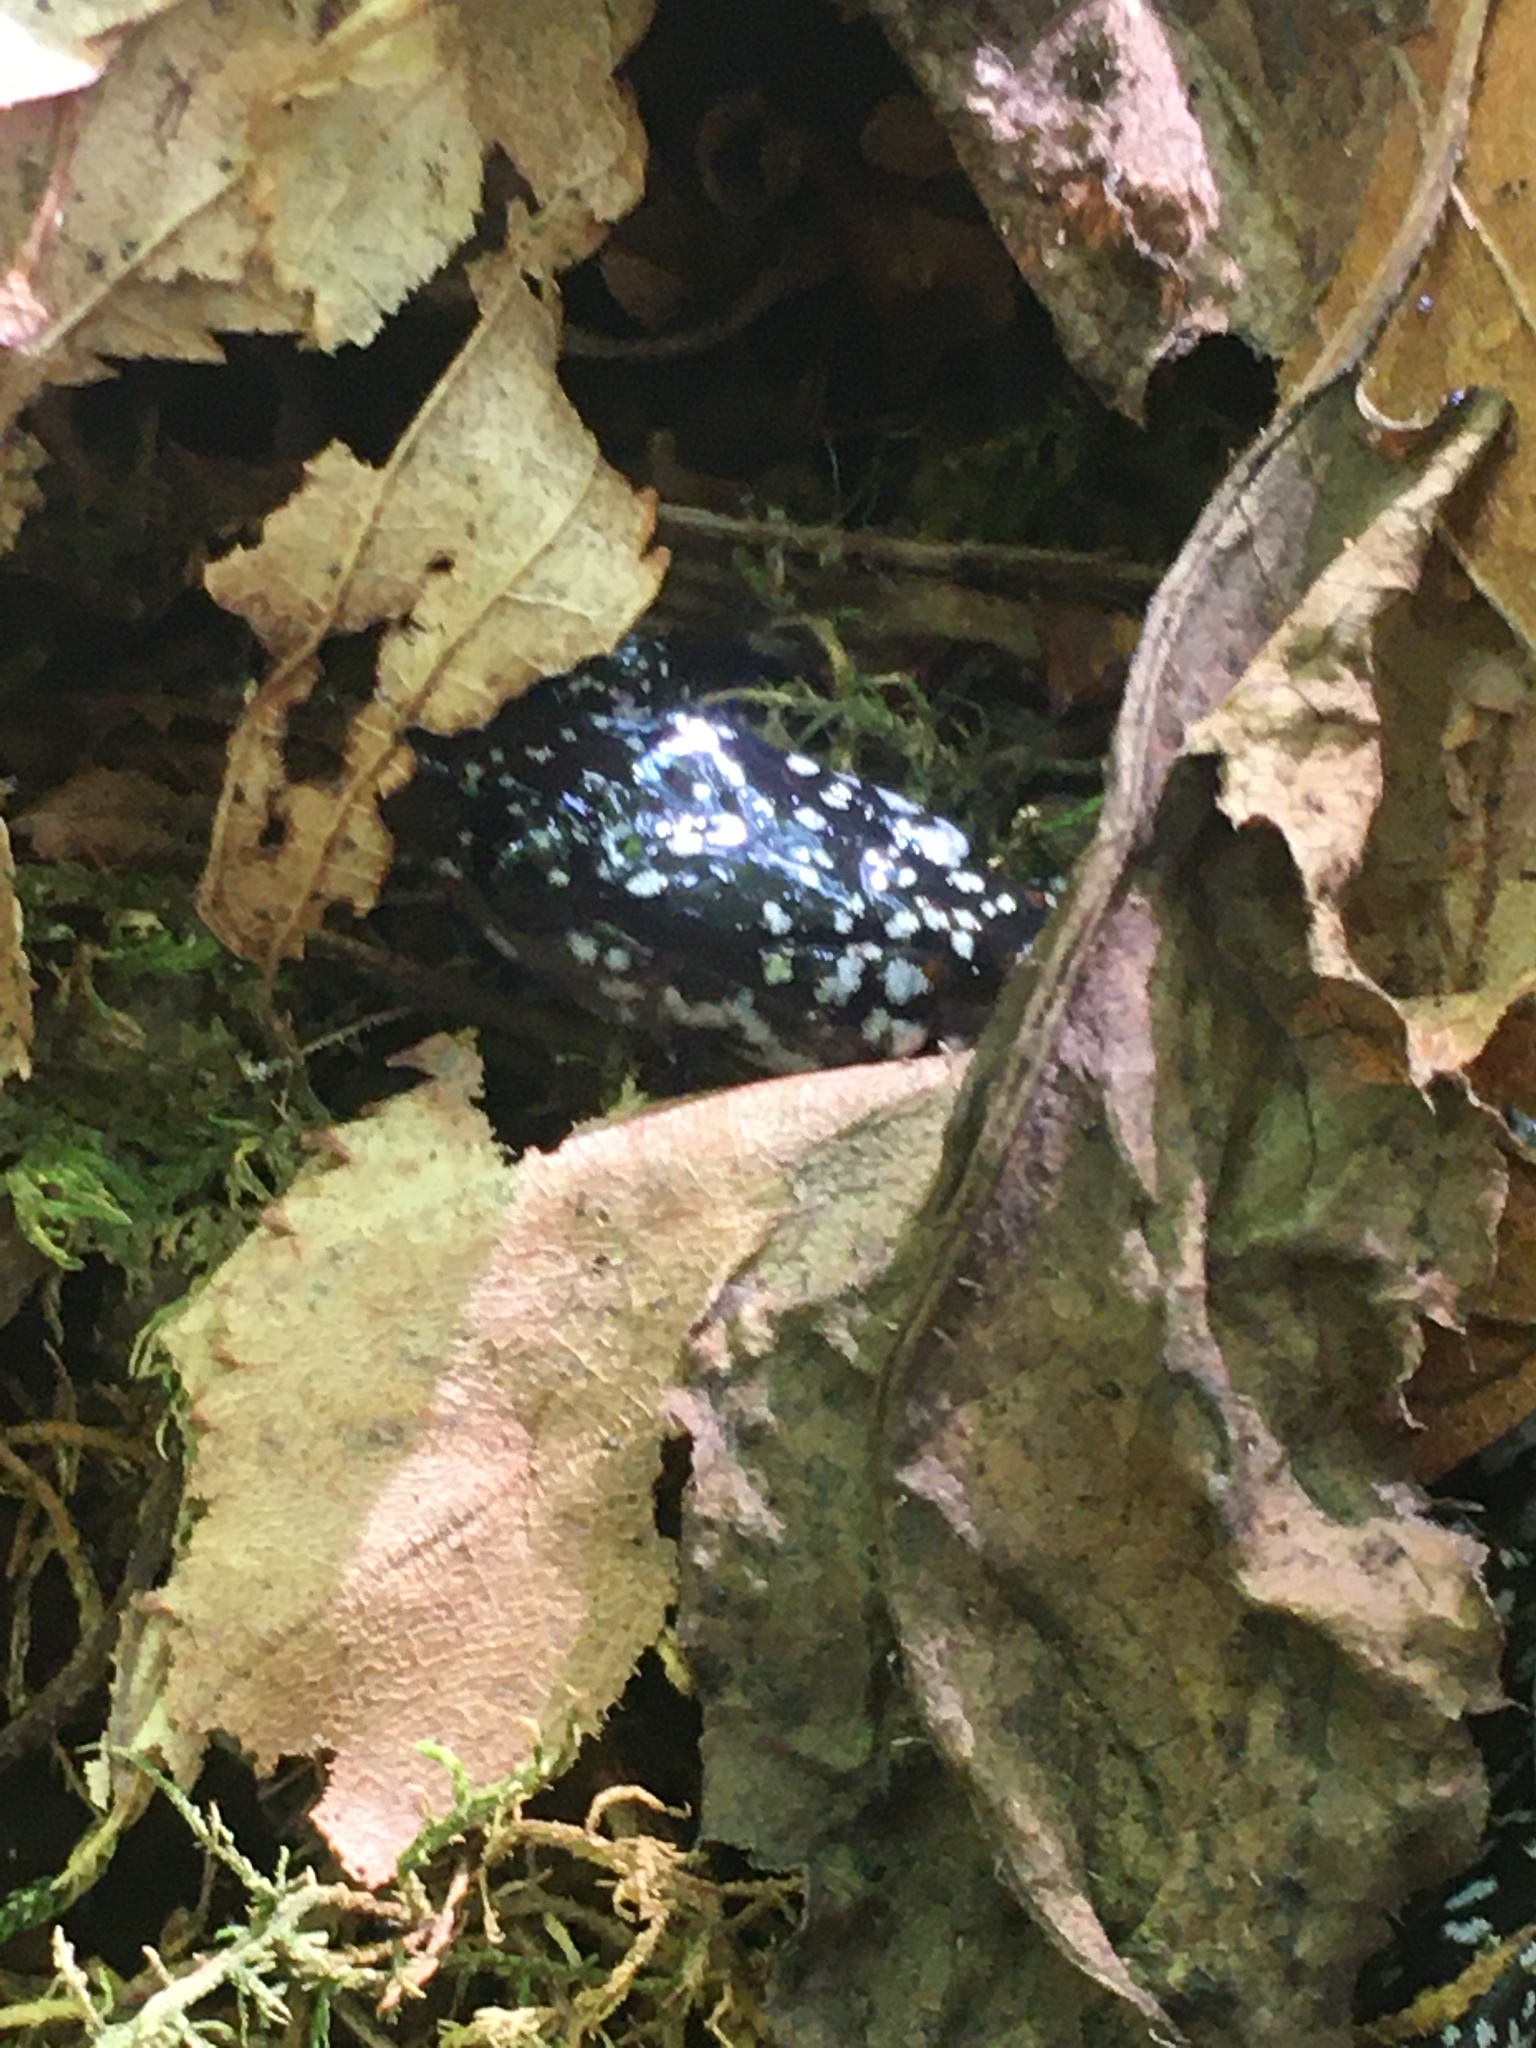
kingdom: Animalia
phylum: Chordata
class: Amphibia
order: Caudata
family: Plethodontidae
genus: Plethodon
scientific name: Plethodon yonahlossee
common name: Yonahlossee salamander
